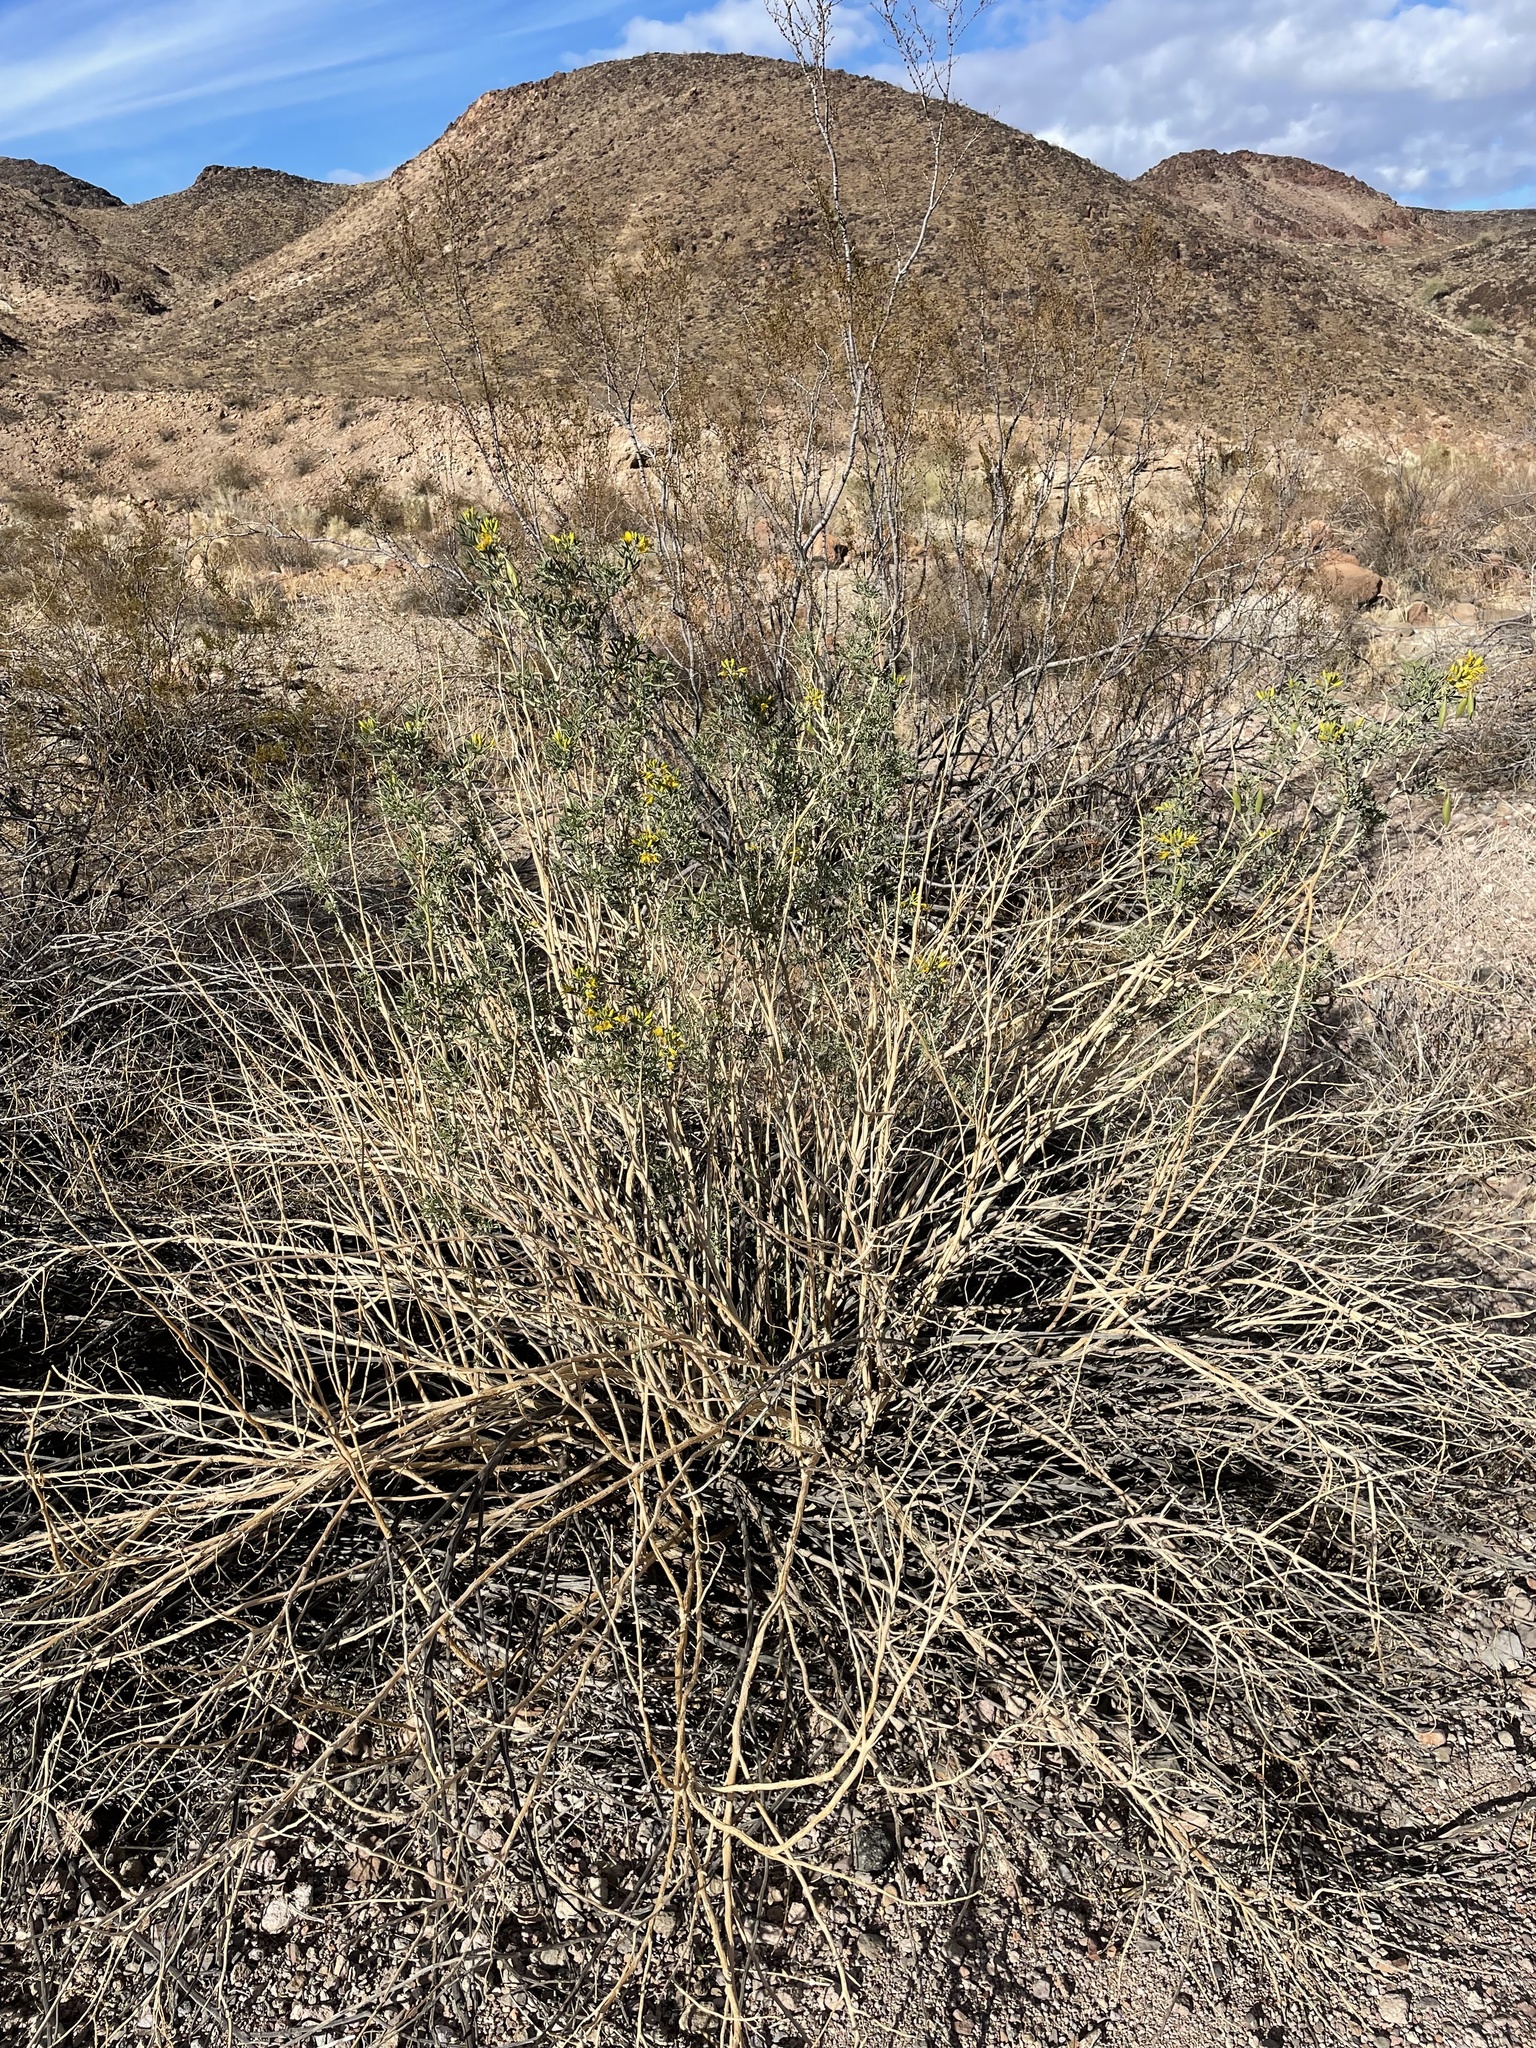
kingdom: Plantae
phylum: Tracheophyta
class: Magnoliopsida
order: Brassicales
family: Cleomaceae
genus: Cleomella
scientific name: Cleomella arborea
